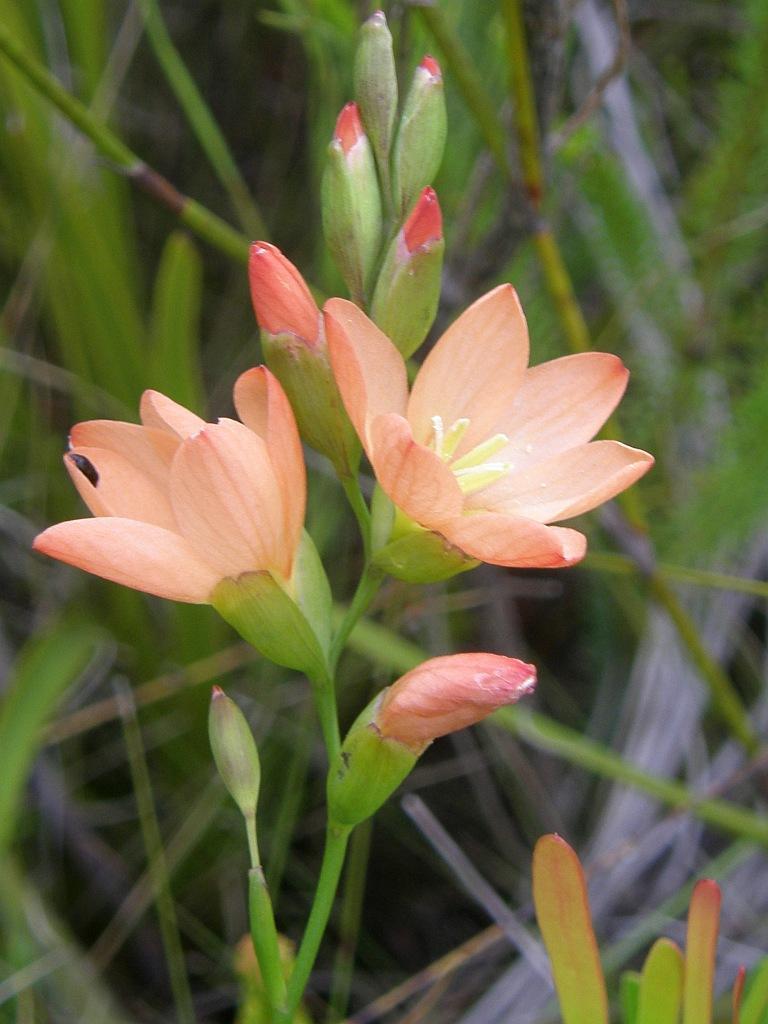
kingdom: Plantae
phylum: Tracheophyta
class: Liliopsida
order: Asparagales
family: Iridaceae
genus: Gladiolus
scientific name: Gladiolus brevitubus
